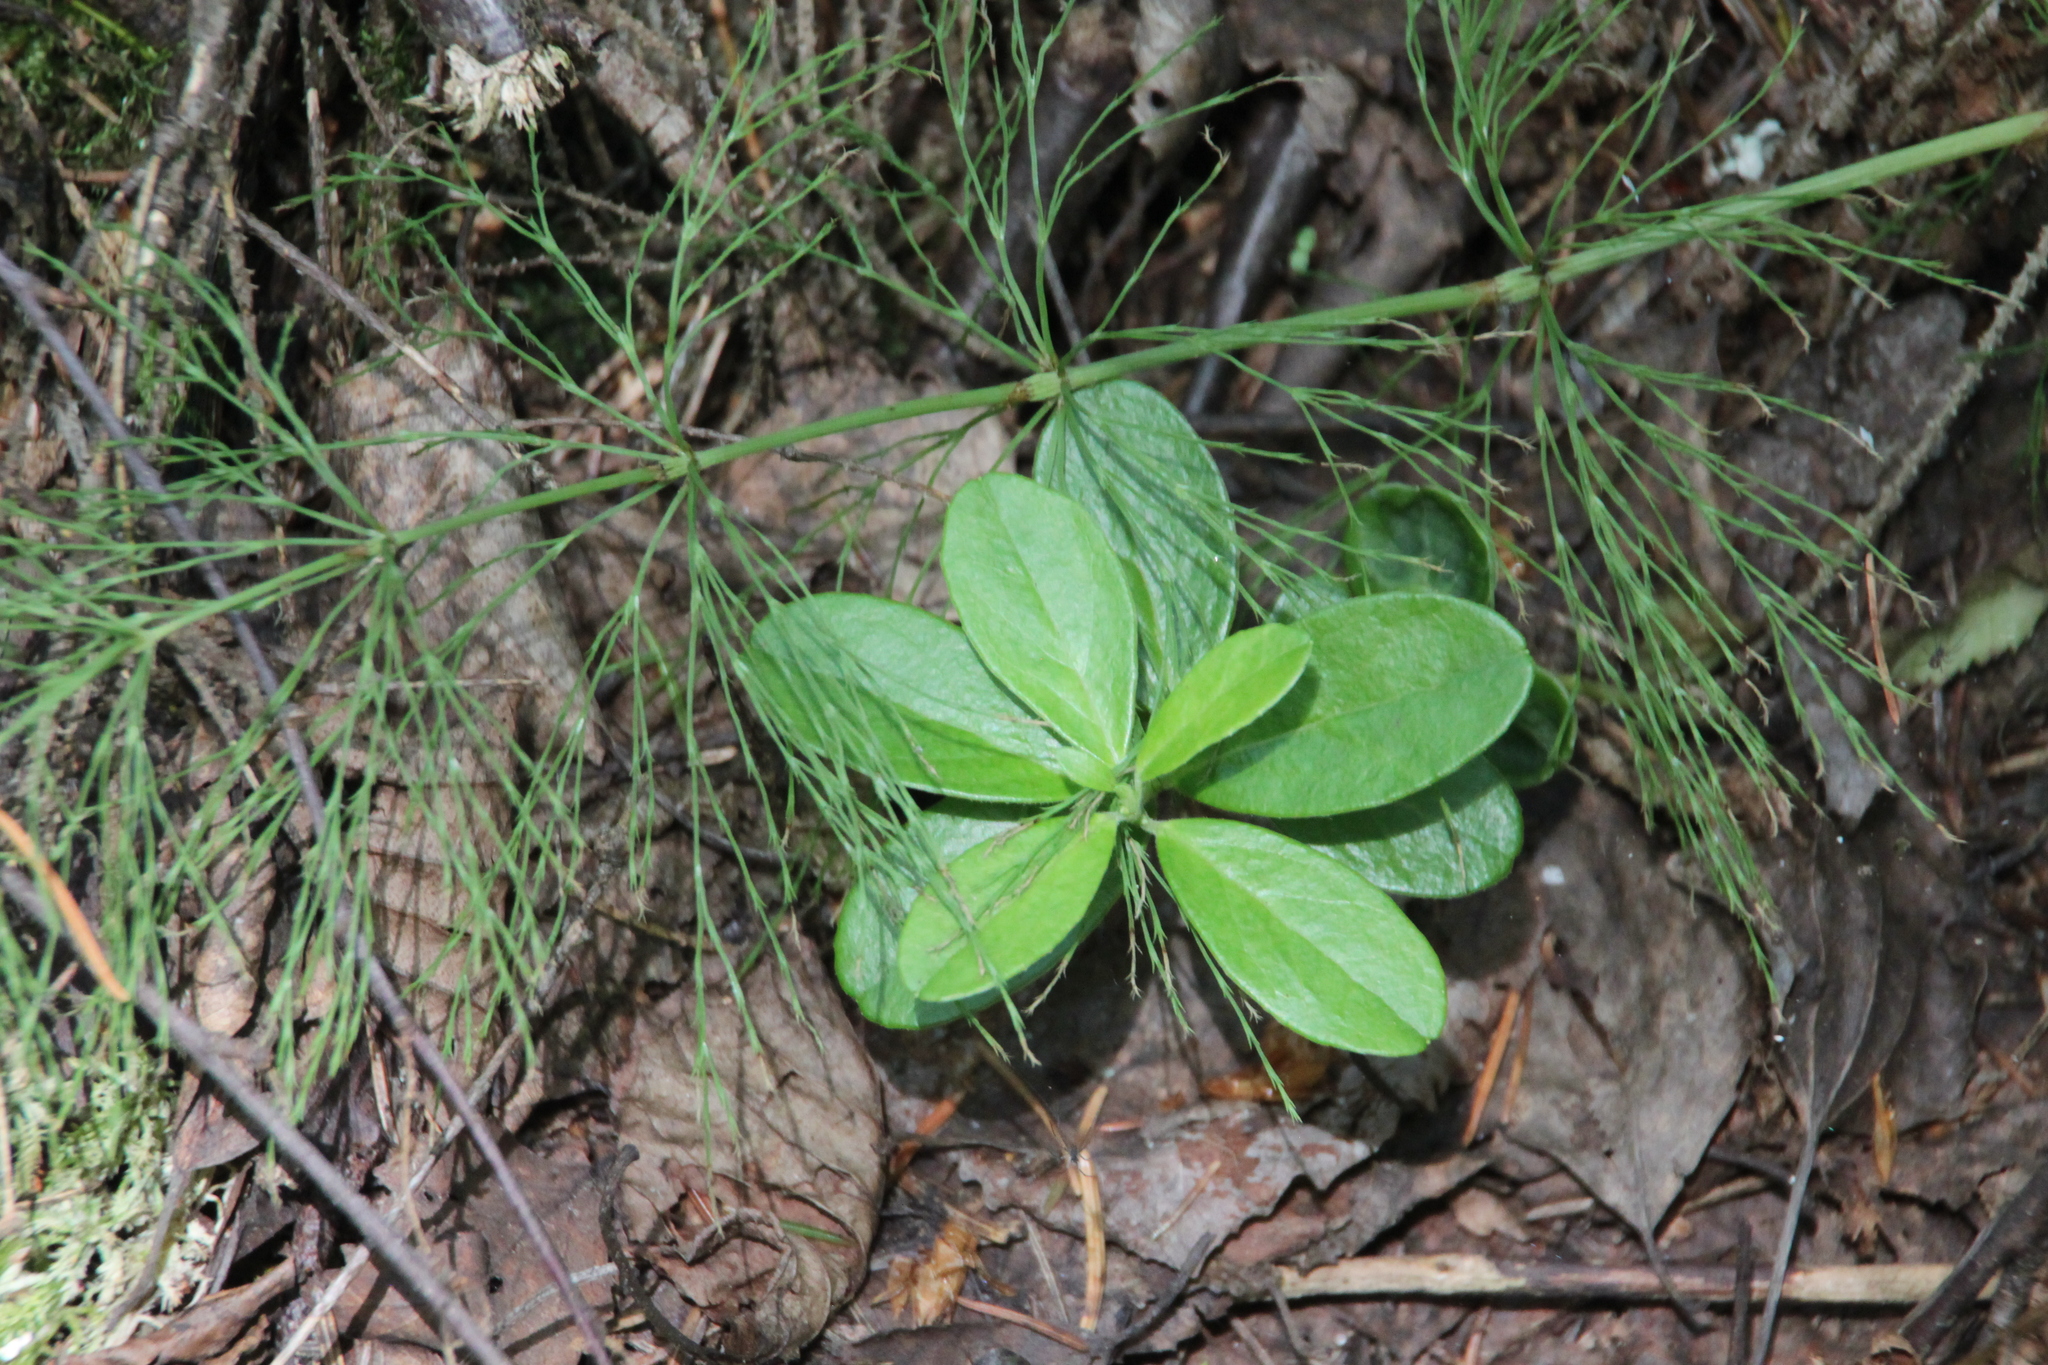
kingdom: Plantae
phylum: Tracheophyta
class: Magnoliopsida
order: Ericales
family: Ericaceae
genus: Vaccinium
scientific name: Vaccinium vitis-idaea
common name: Cowberry
